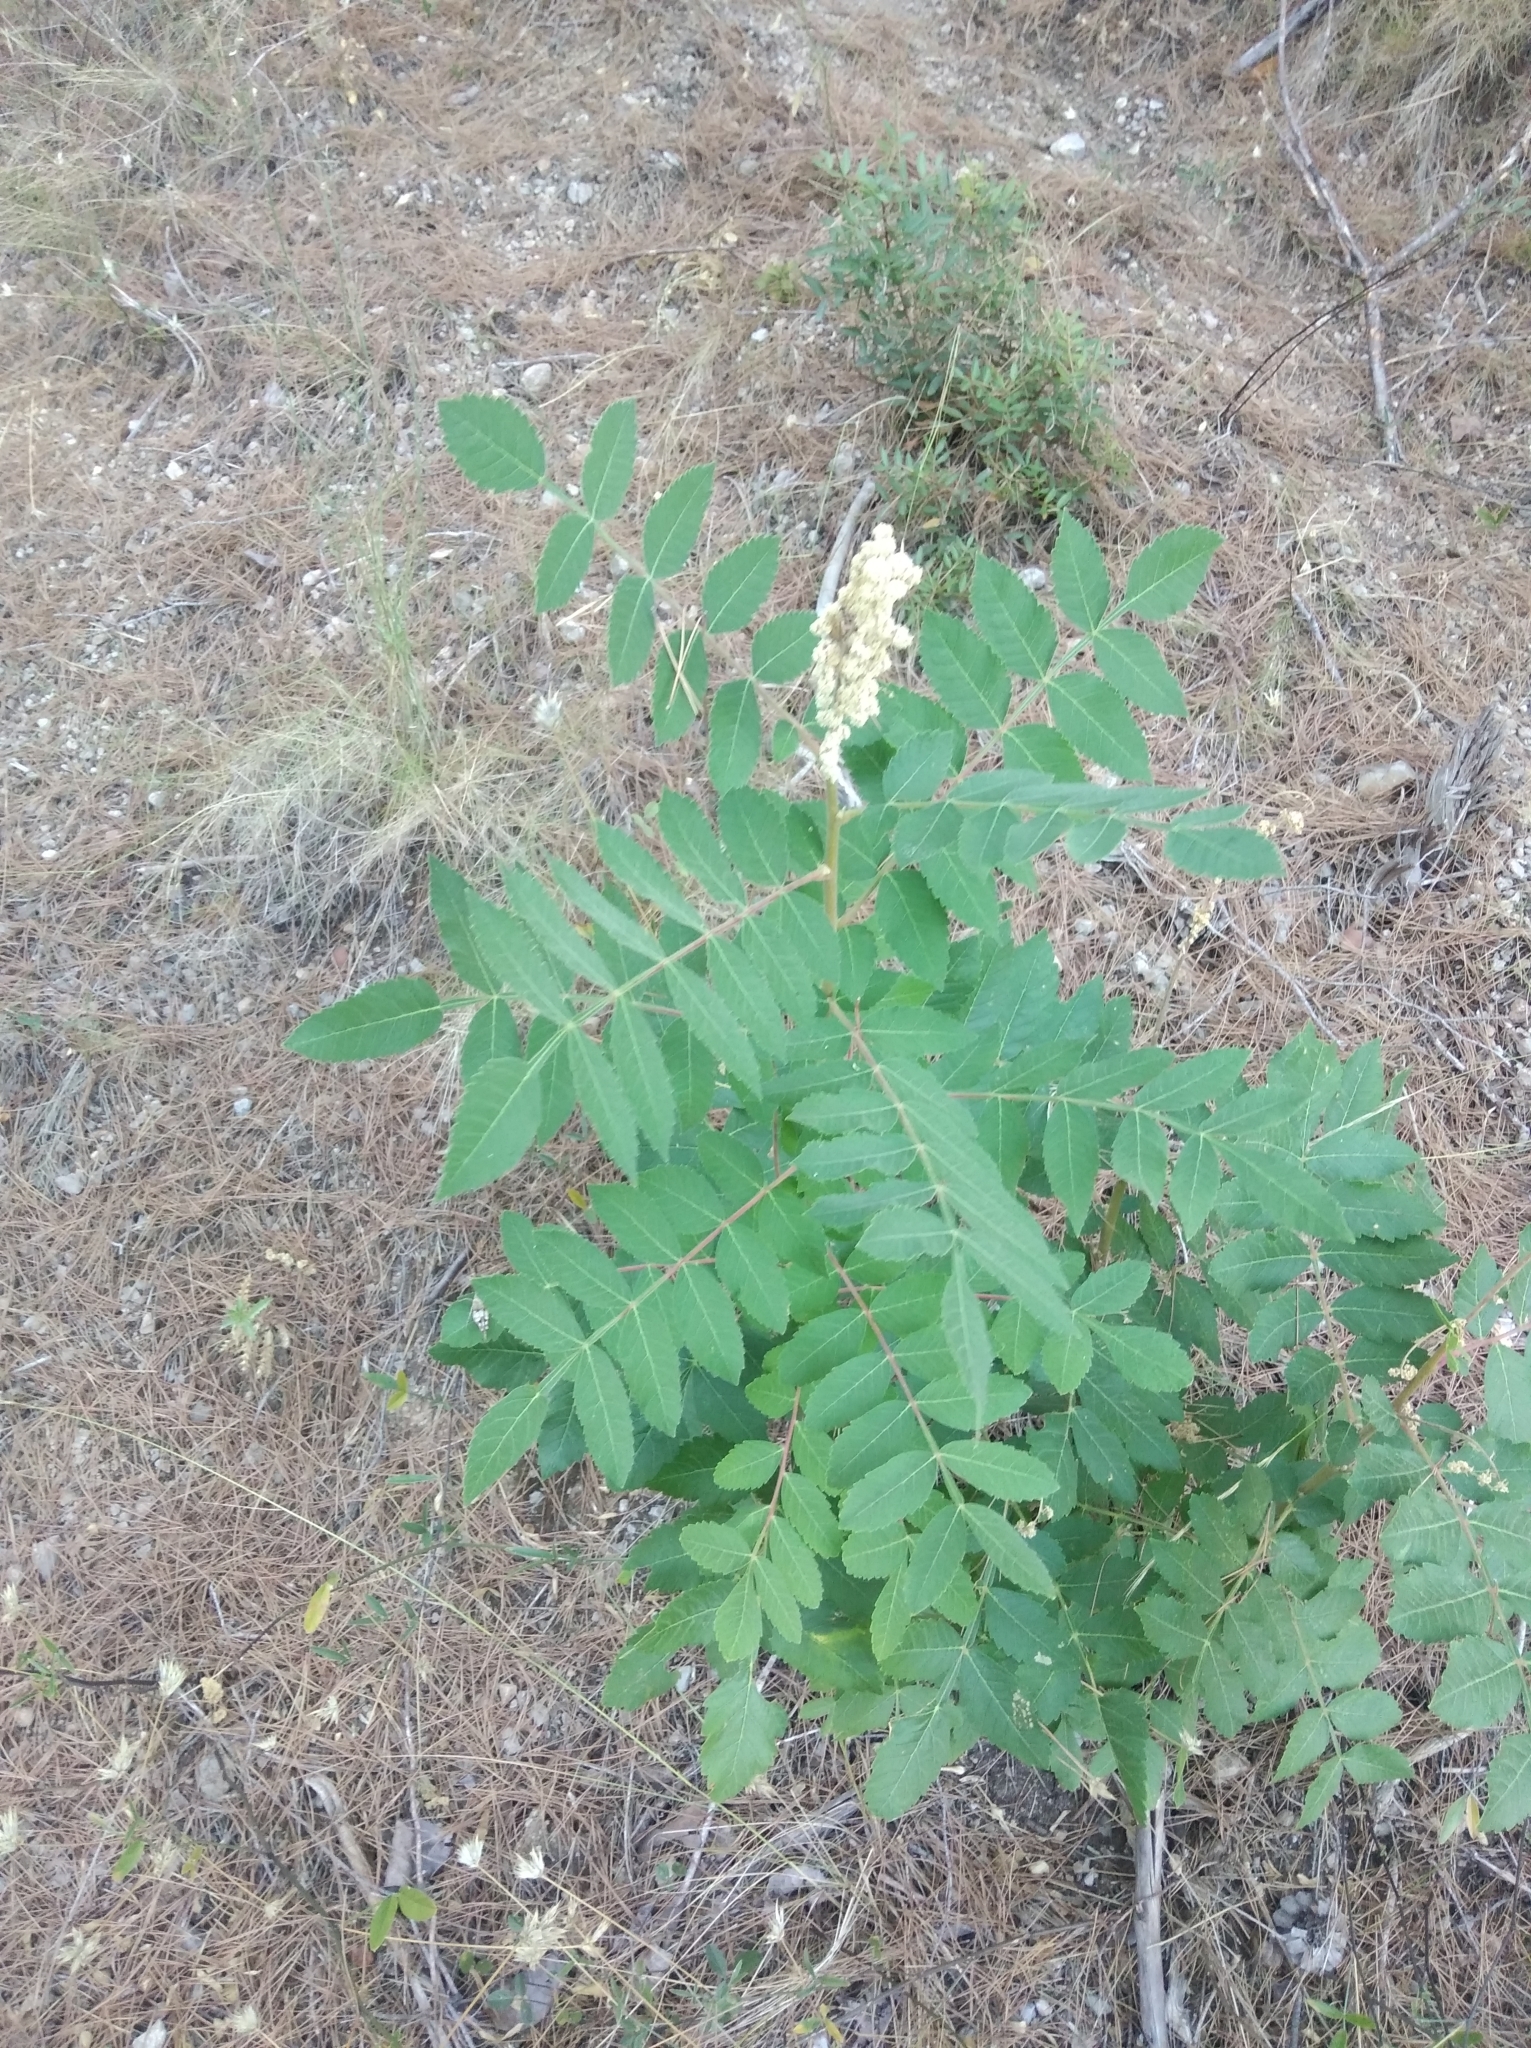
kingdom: Plantae
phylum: Tracheophyta
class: Magnoliopsida
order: Sapindales
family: Anacardiaceae
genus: Rhus
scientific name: Rhus coriaria
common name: Tanner's sumach
